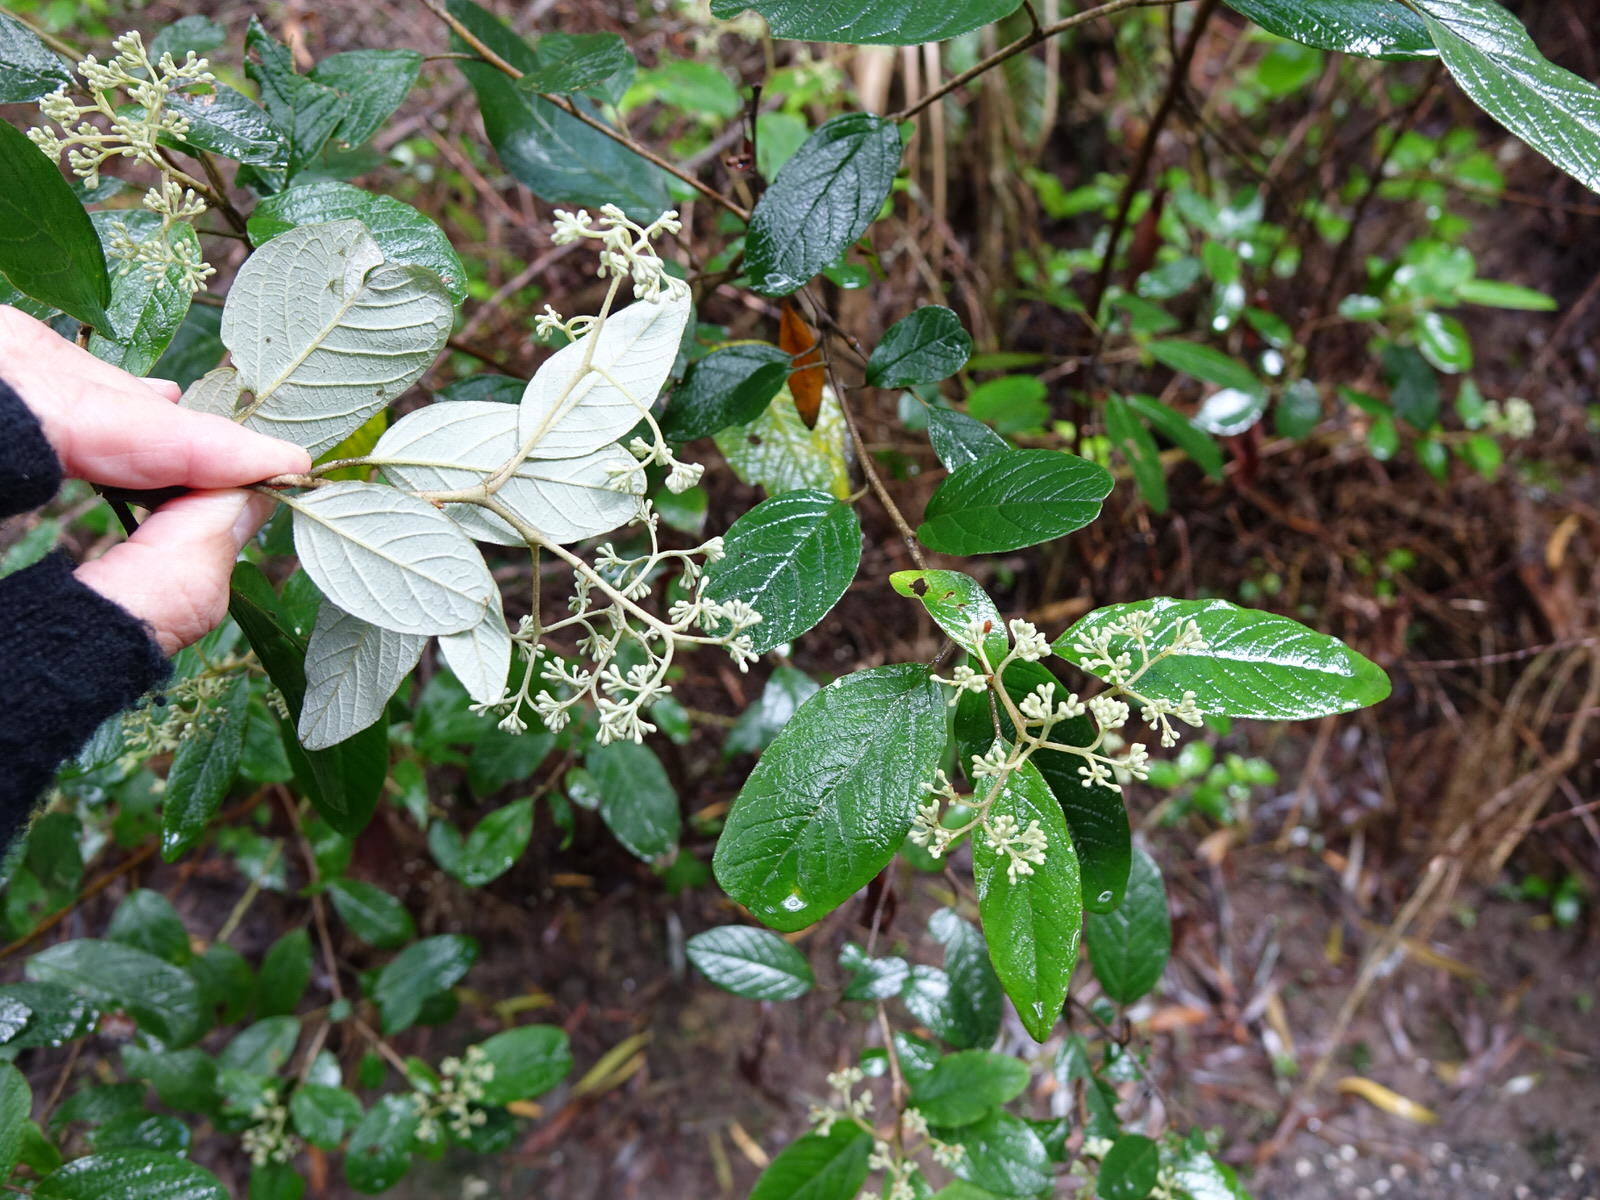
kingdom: Plantae
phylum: Tracheophyta
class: Magnoliopsida
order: Rosales
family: Rhamnaceae
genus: Pomaderris
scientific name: Pomaderris kumeraho
